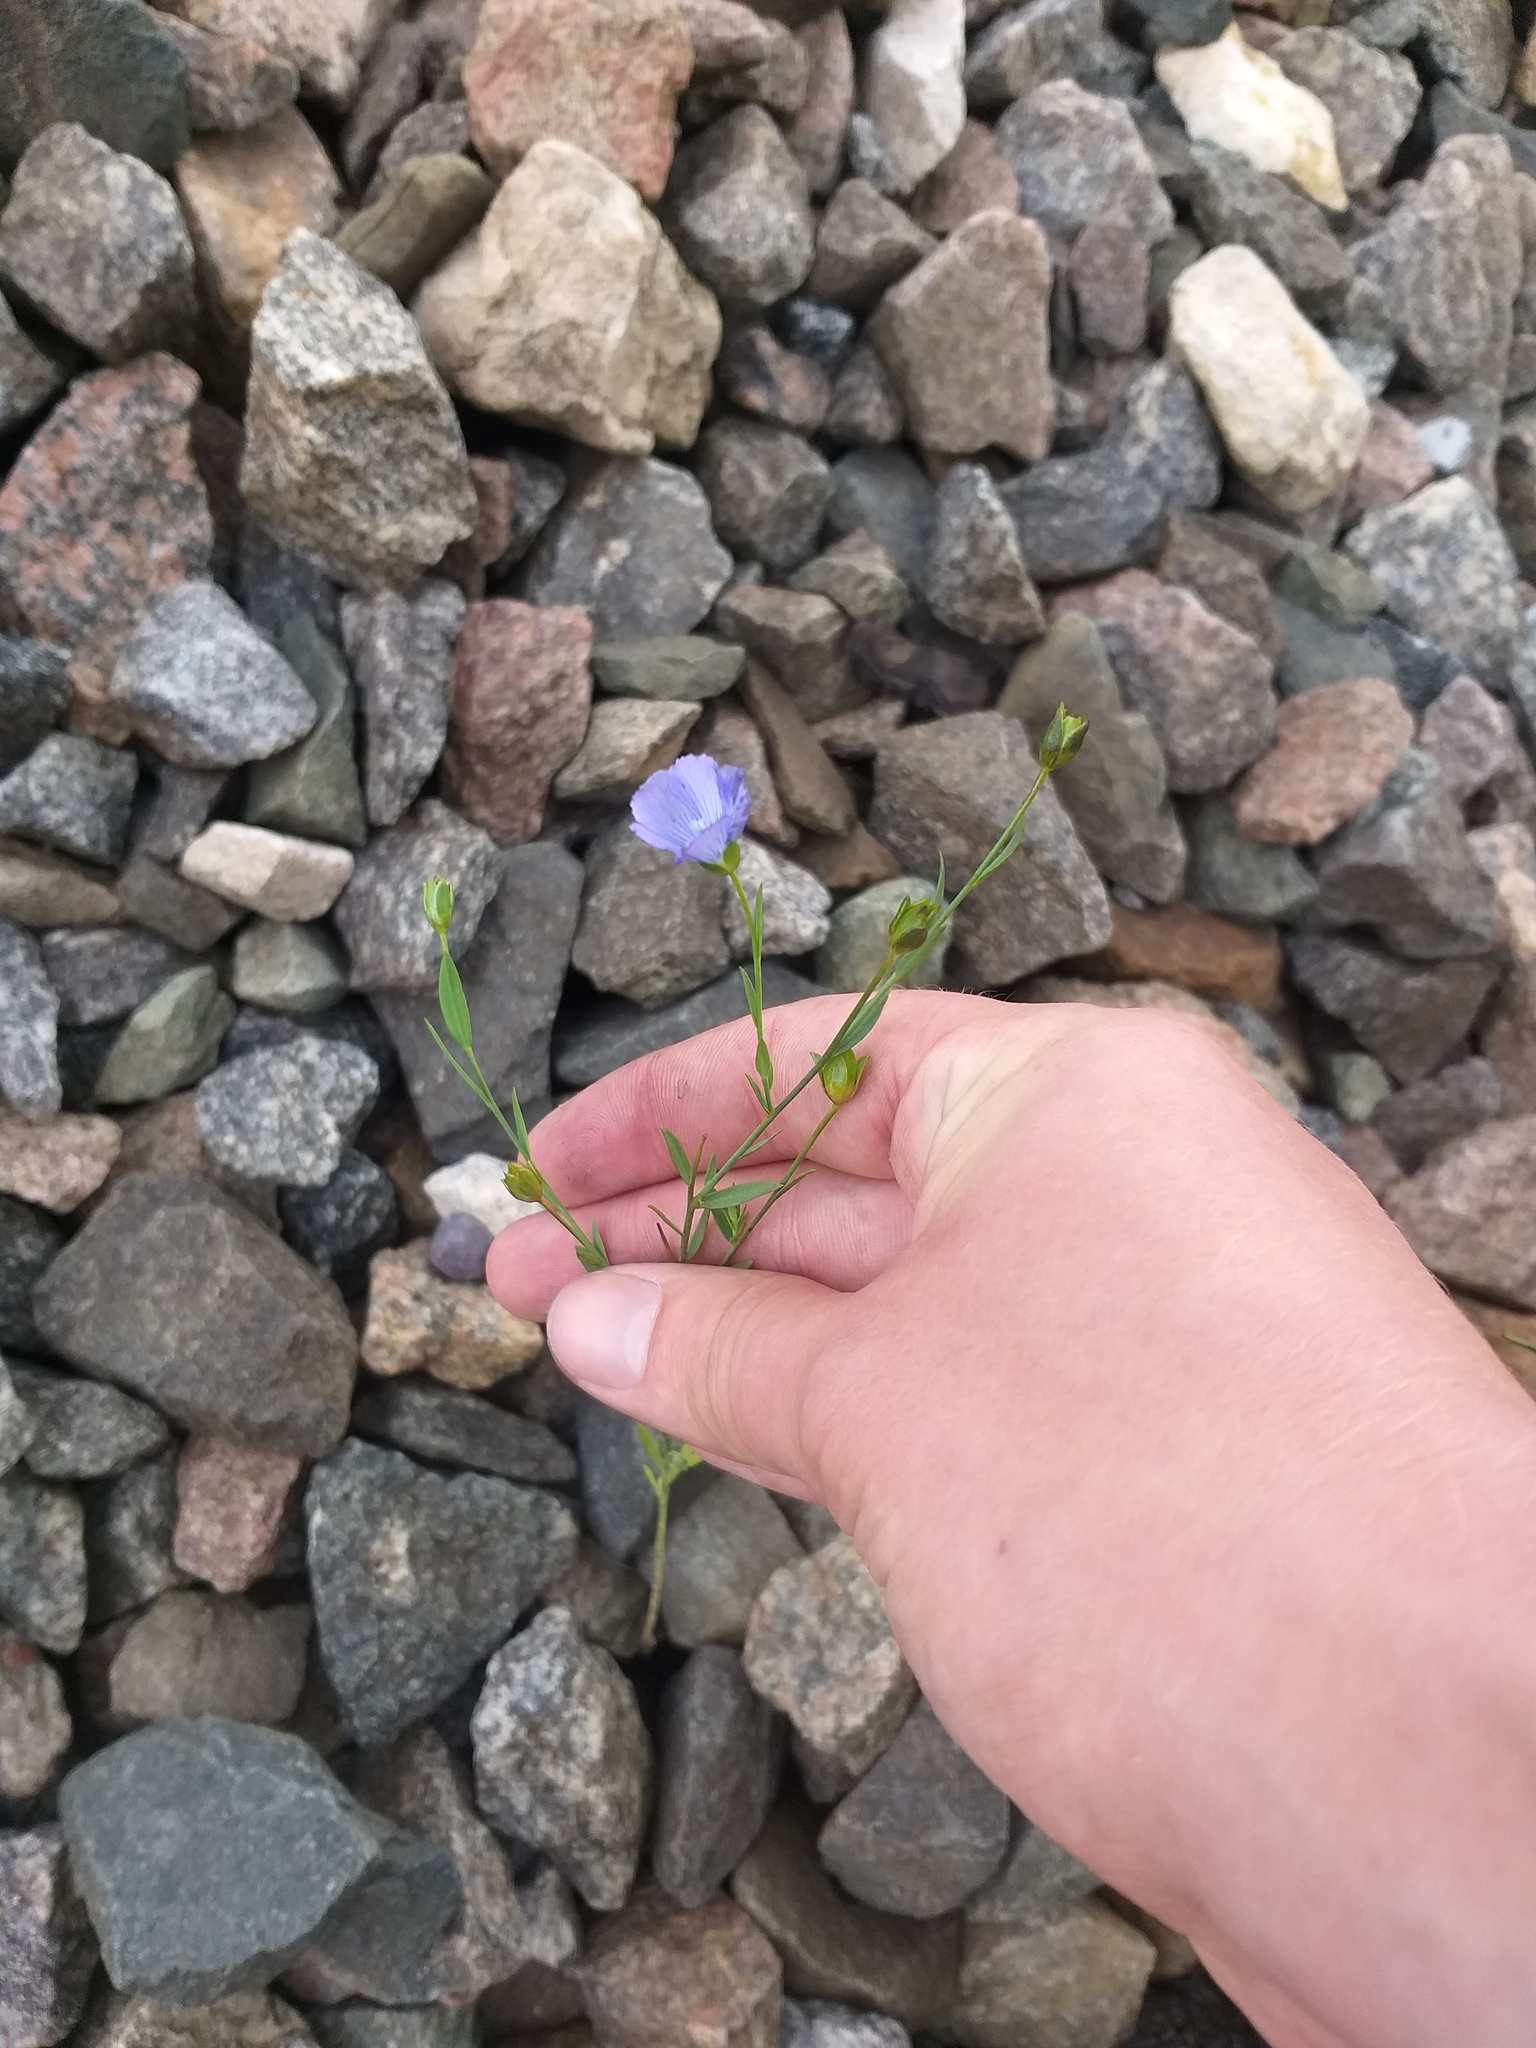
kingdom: Plantae
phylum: Tracheophyta
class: Magnoliopsida
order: Malpighiales
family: Linaceae
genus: Linum
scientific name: Linum usitatissimum
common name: Flax
